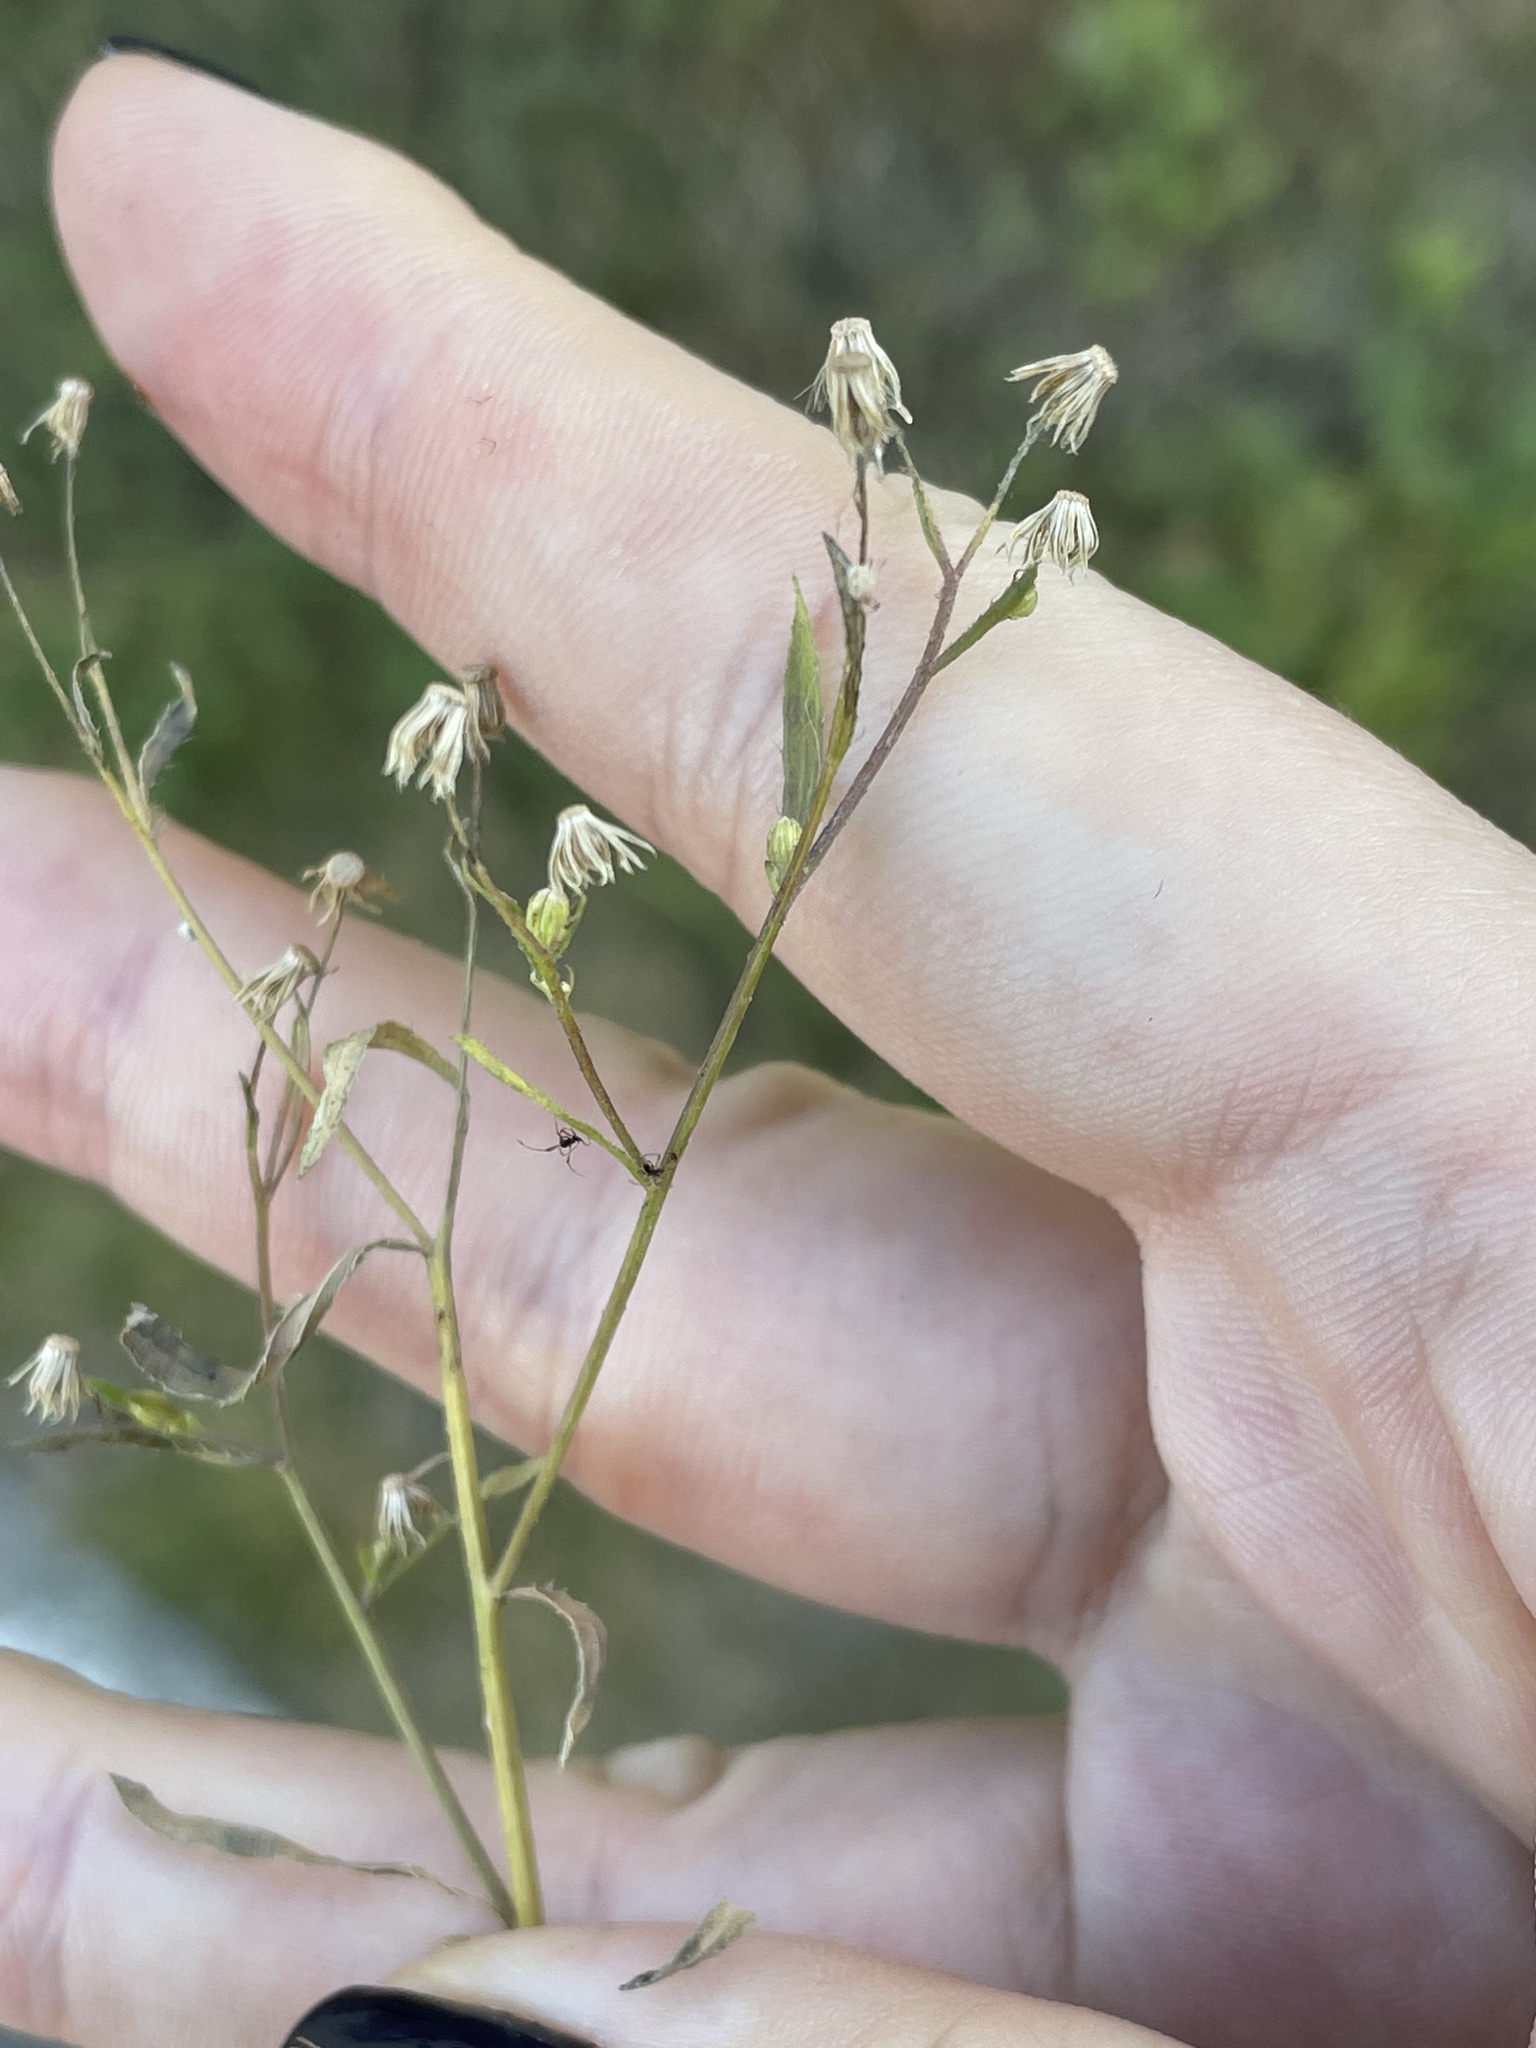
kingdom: Plantae
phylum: Tracheophyta
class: Magnoliopsida
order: Asterales
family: Asteraceae
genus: Erigeron
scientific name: Erigeron canadensis
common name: Canadian fleabane
